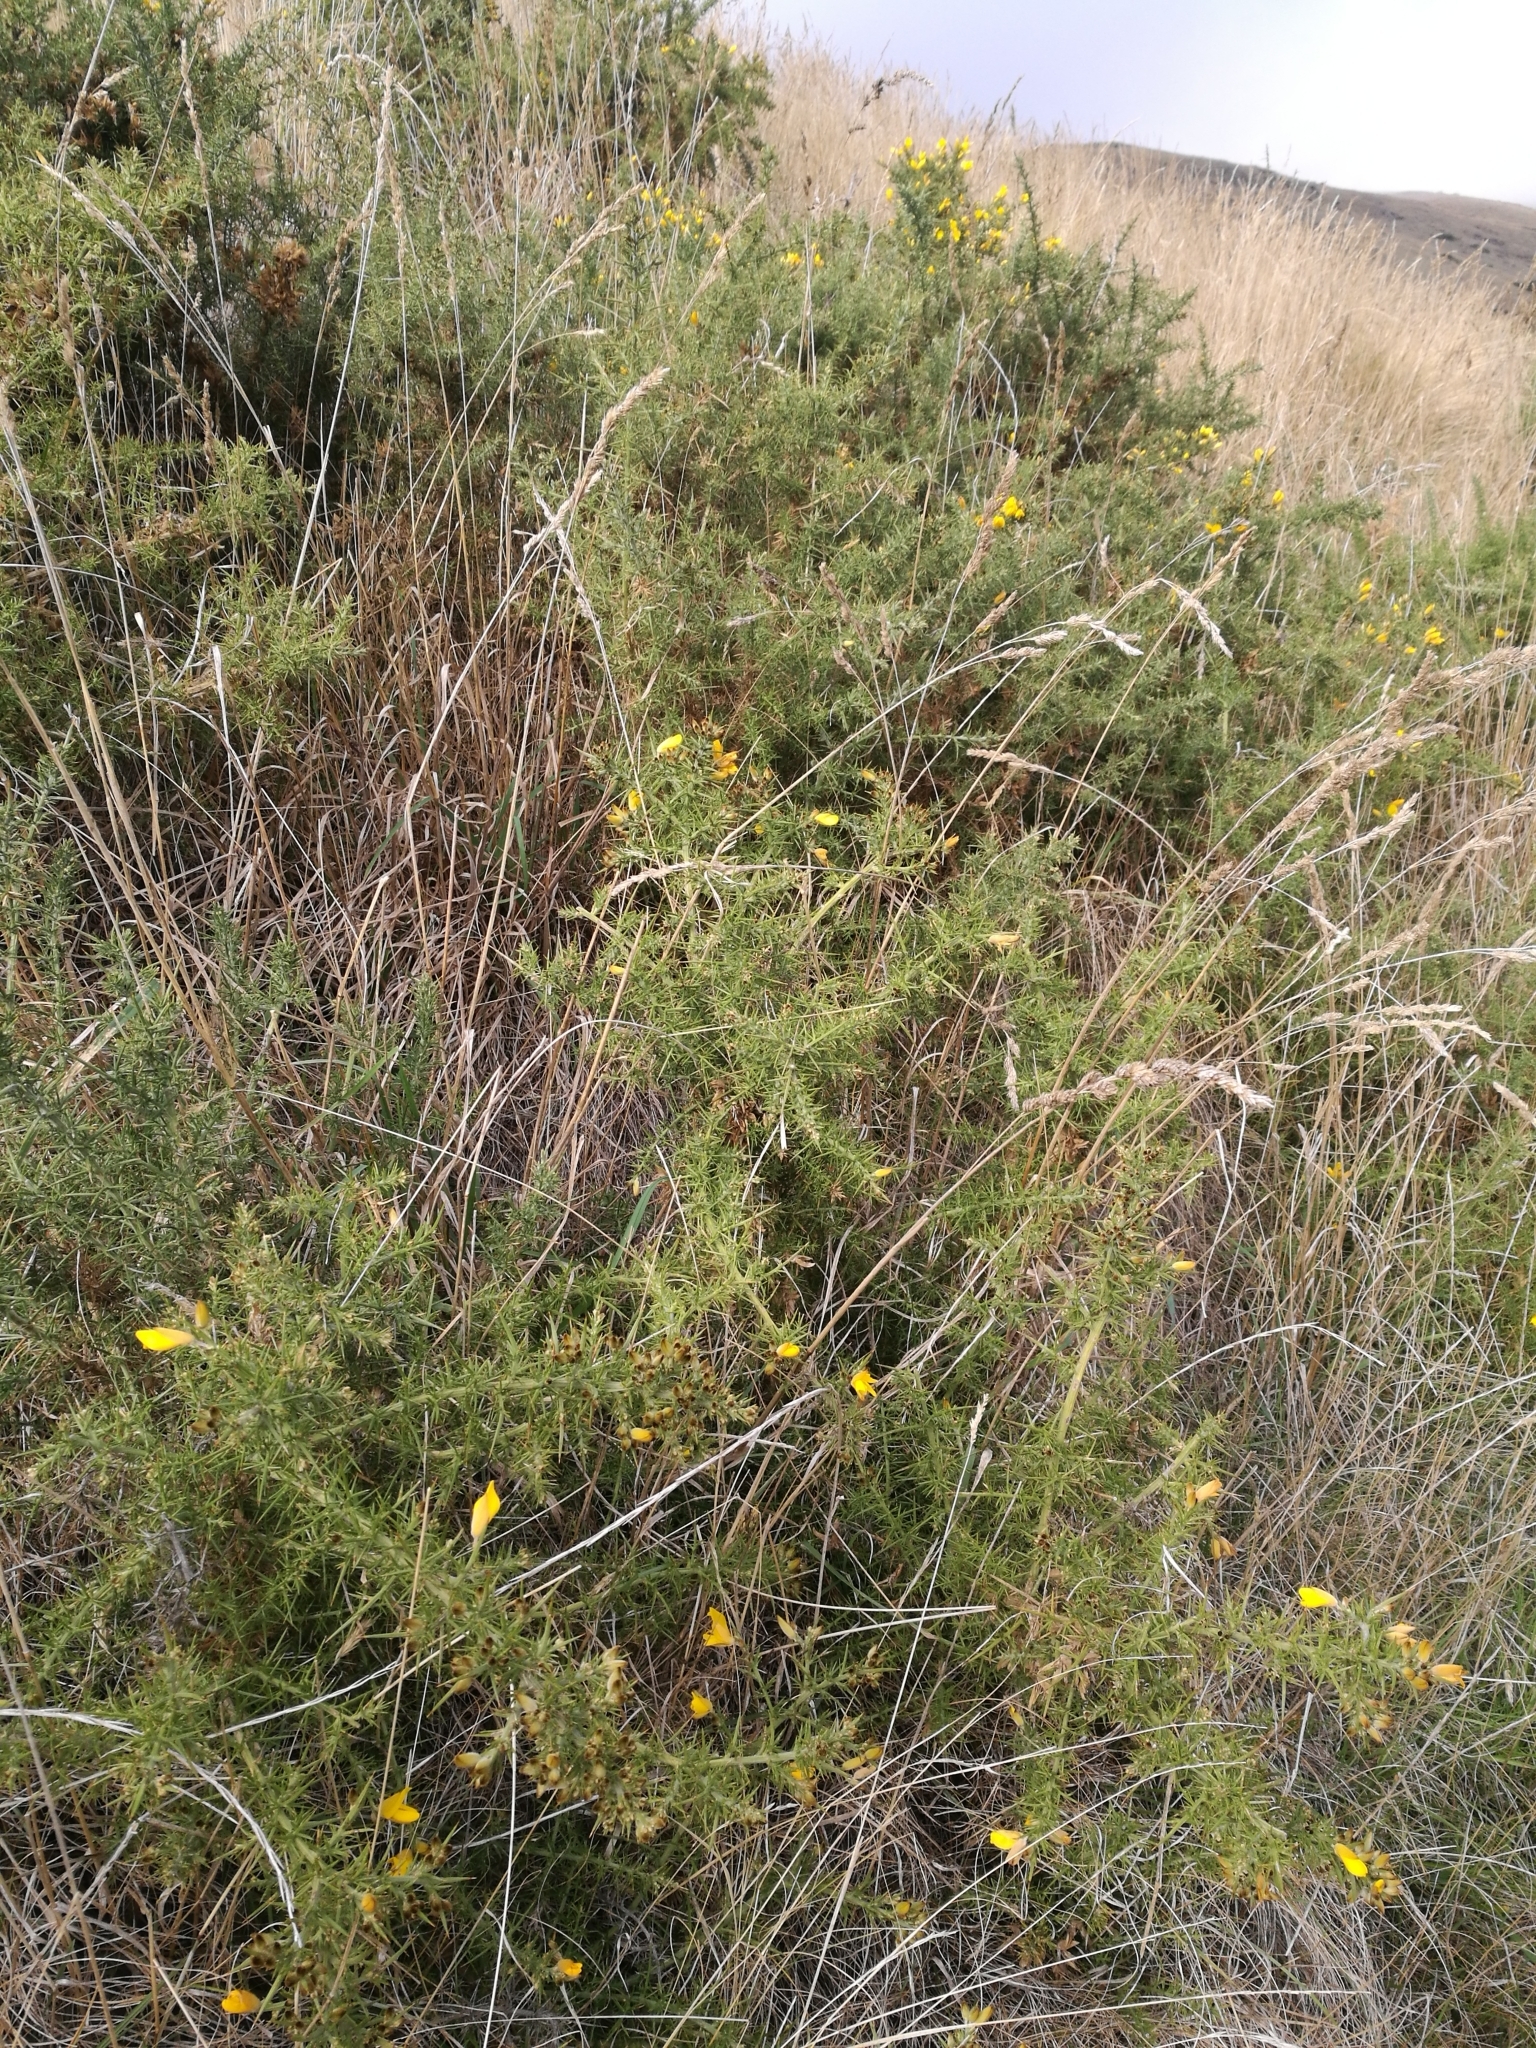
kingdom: Plantae
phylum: Tracheophyta
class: Magnoliopsida
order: Fabales
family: Fabaceae
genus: Ulex
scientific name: Ulex europaeus
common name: Common gorse
